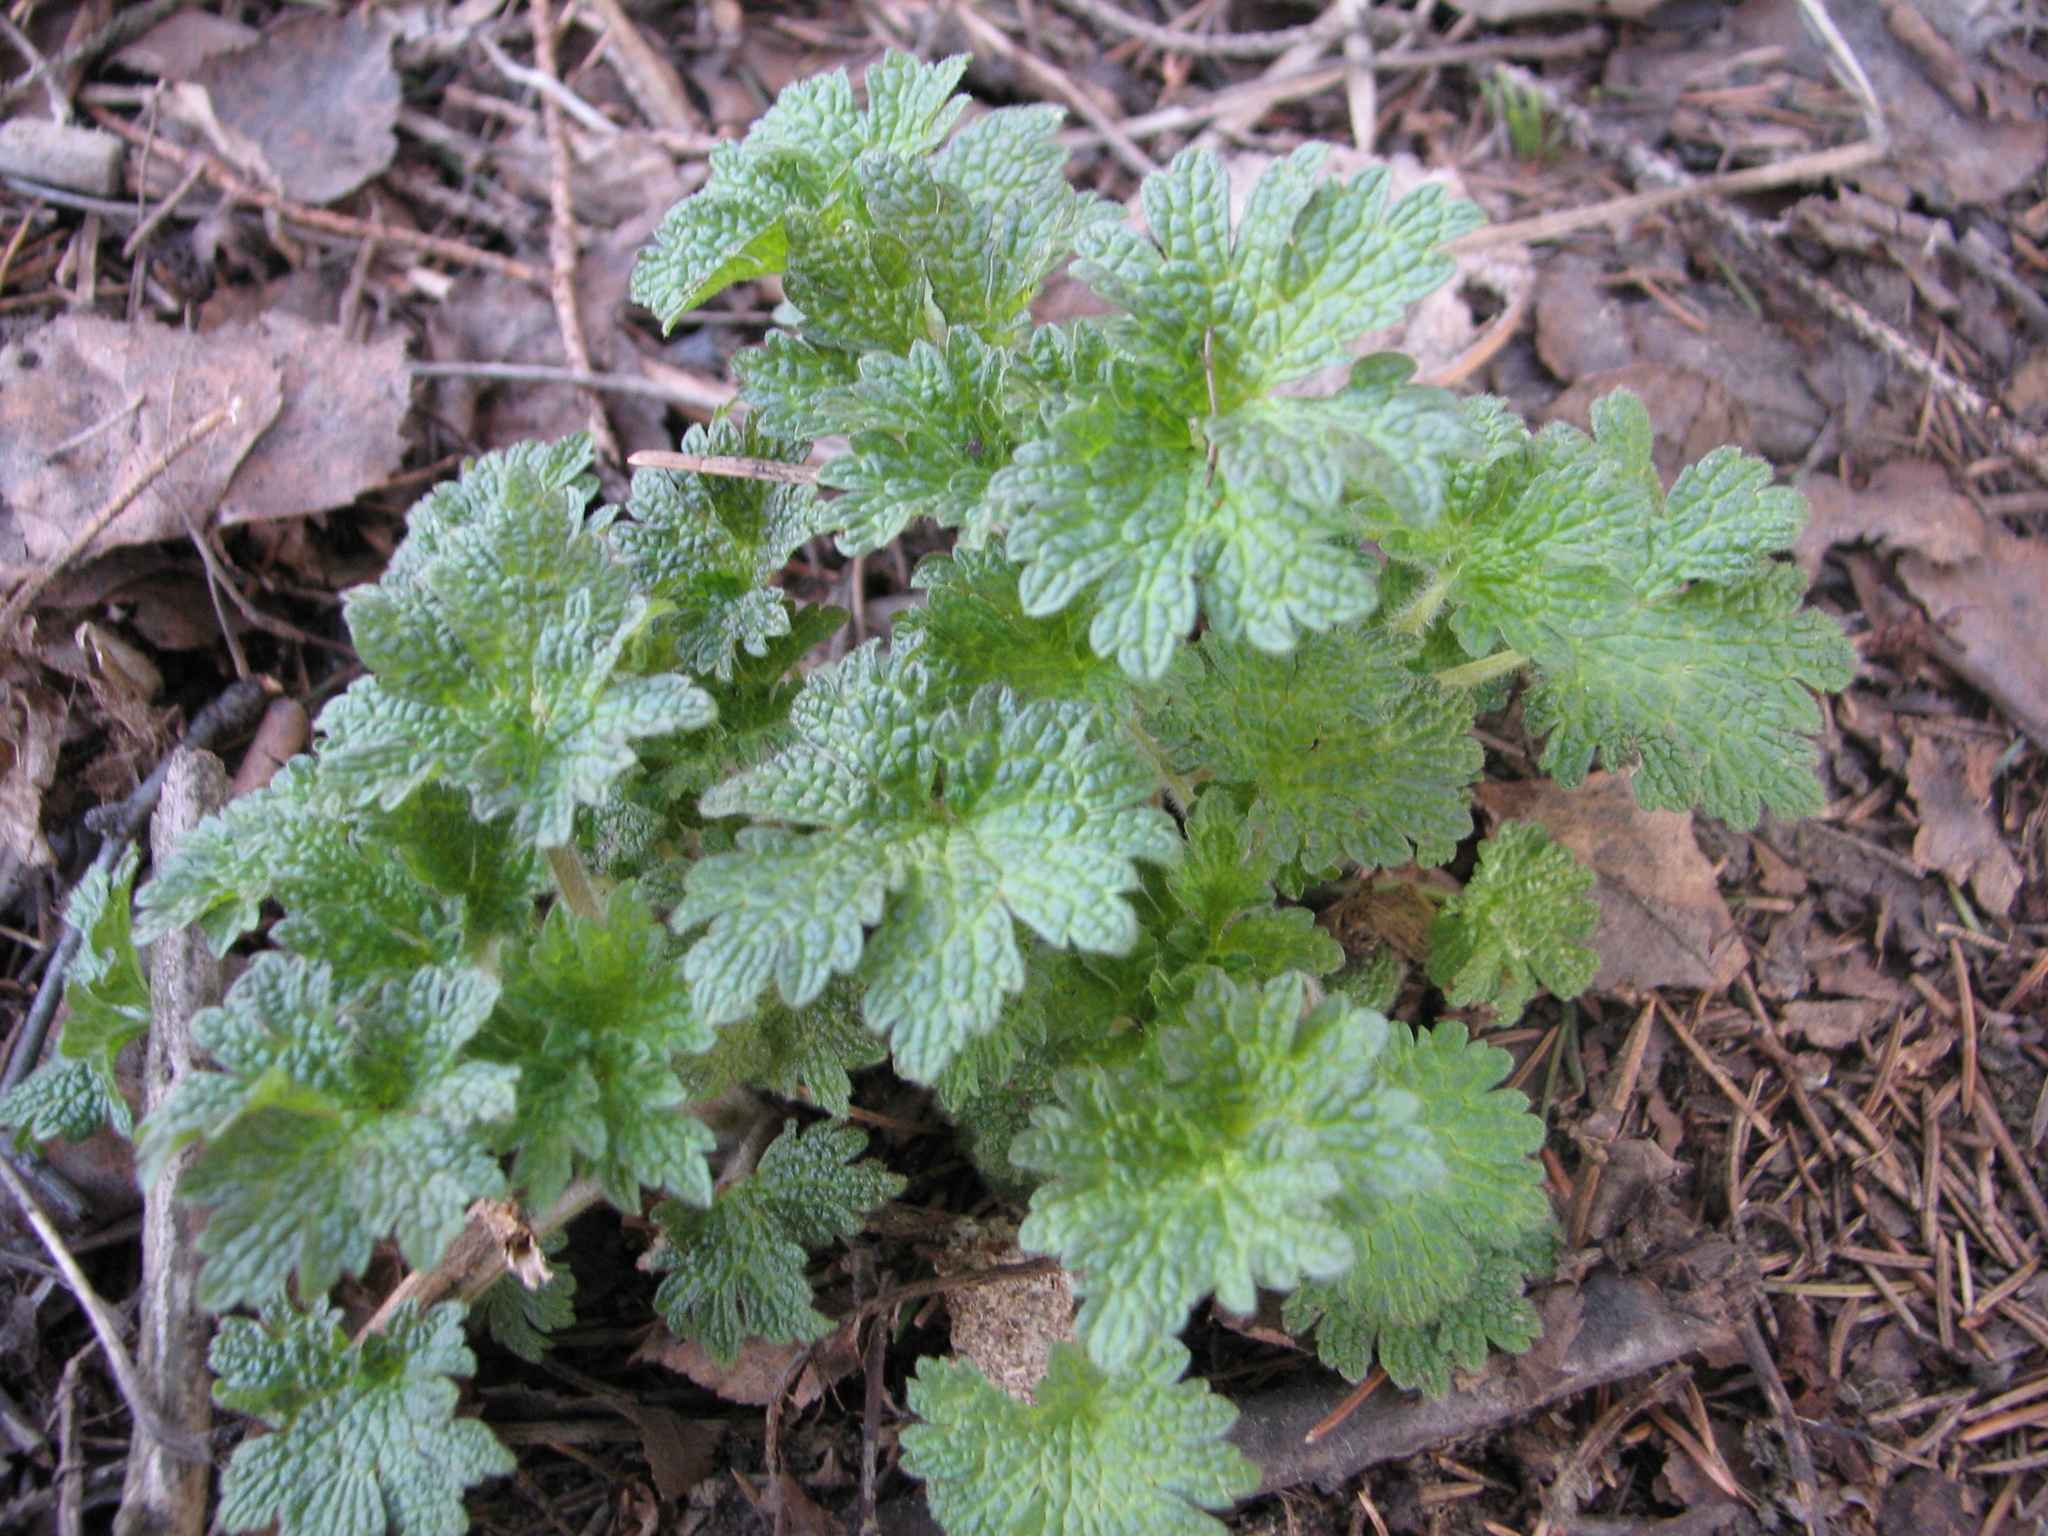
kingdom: Plantae
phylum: Tracheophyta
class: Magnoliopsida
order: Lamiales
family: Lamiaceae
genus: Leonurus
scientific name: Leonurus quinquelobatus
